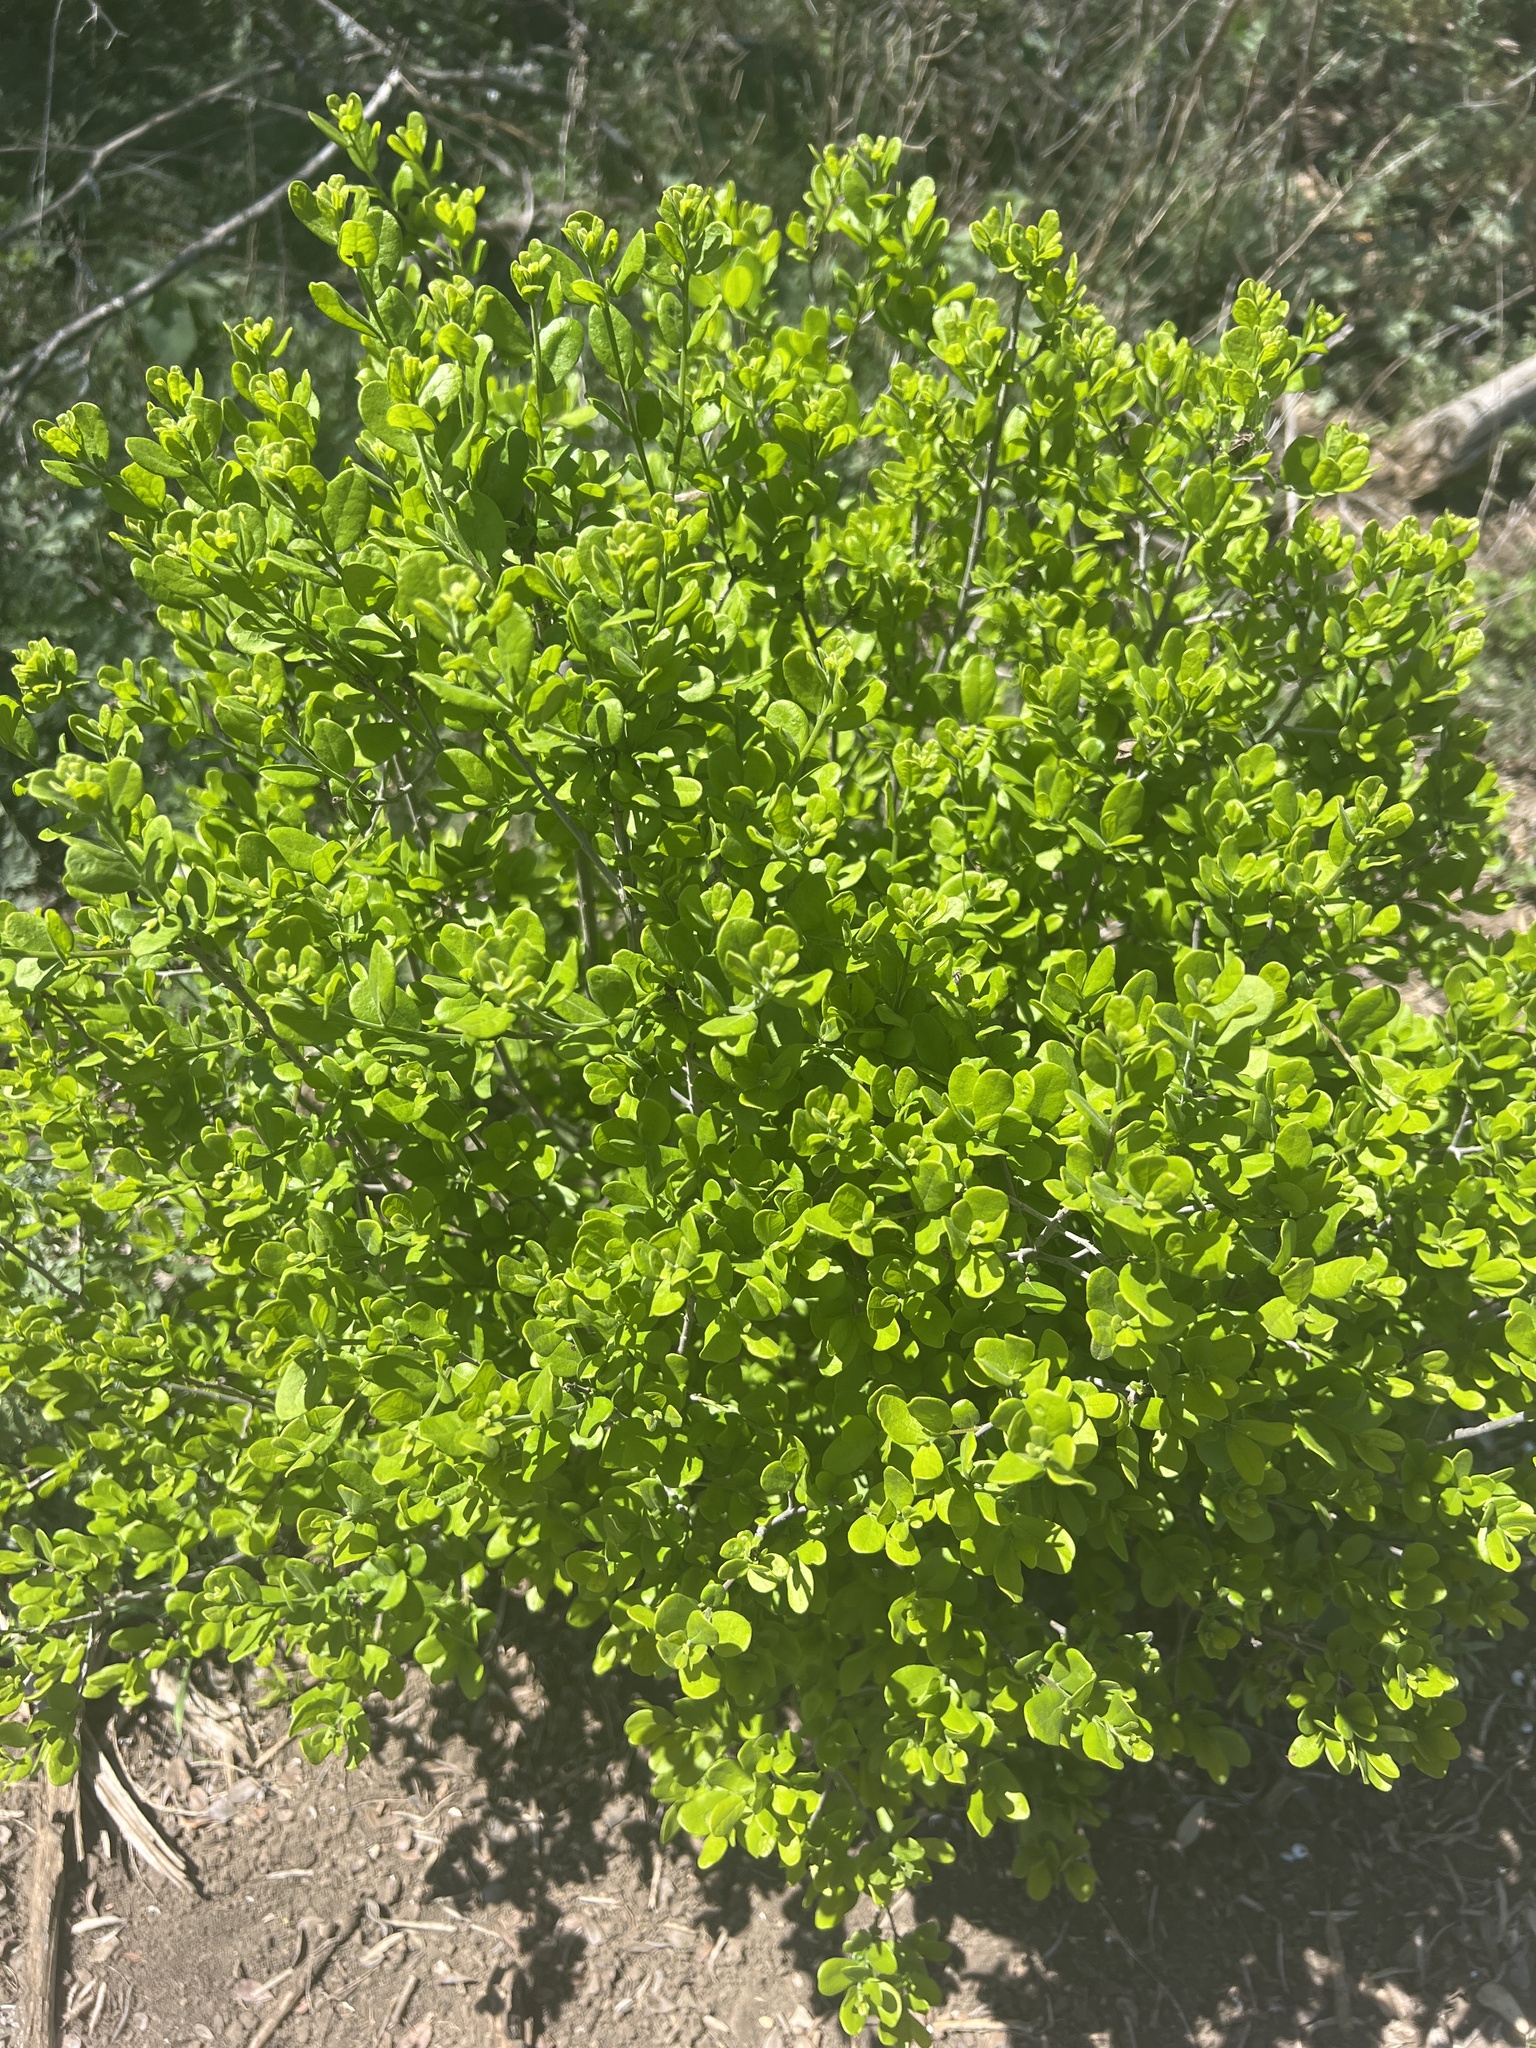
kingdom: Plantae
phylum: Tracheophyta
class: Magnoliopsida
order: Ericales
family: Ebenaceae
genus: Diospyros
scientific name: Diospyros texana
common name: Texas persimmon
